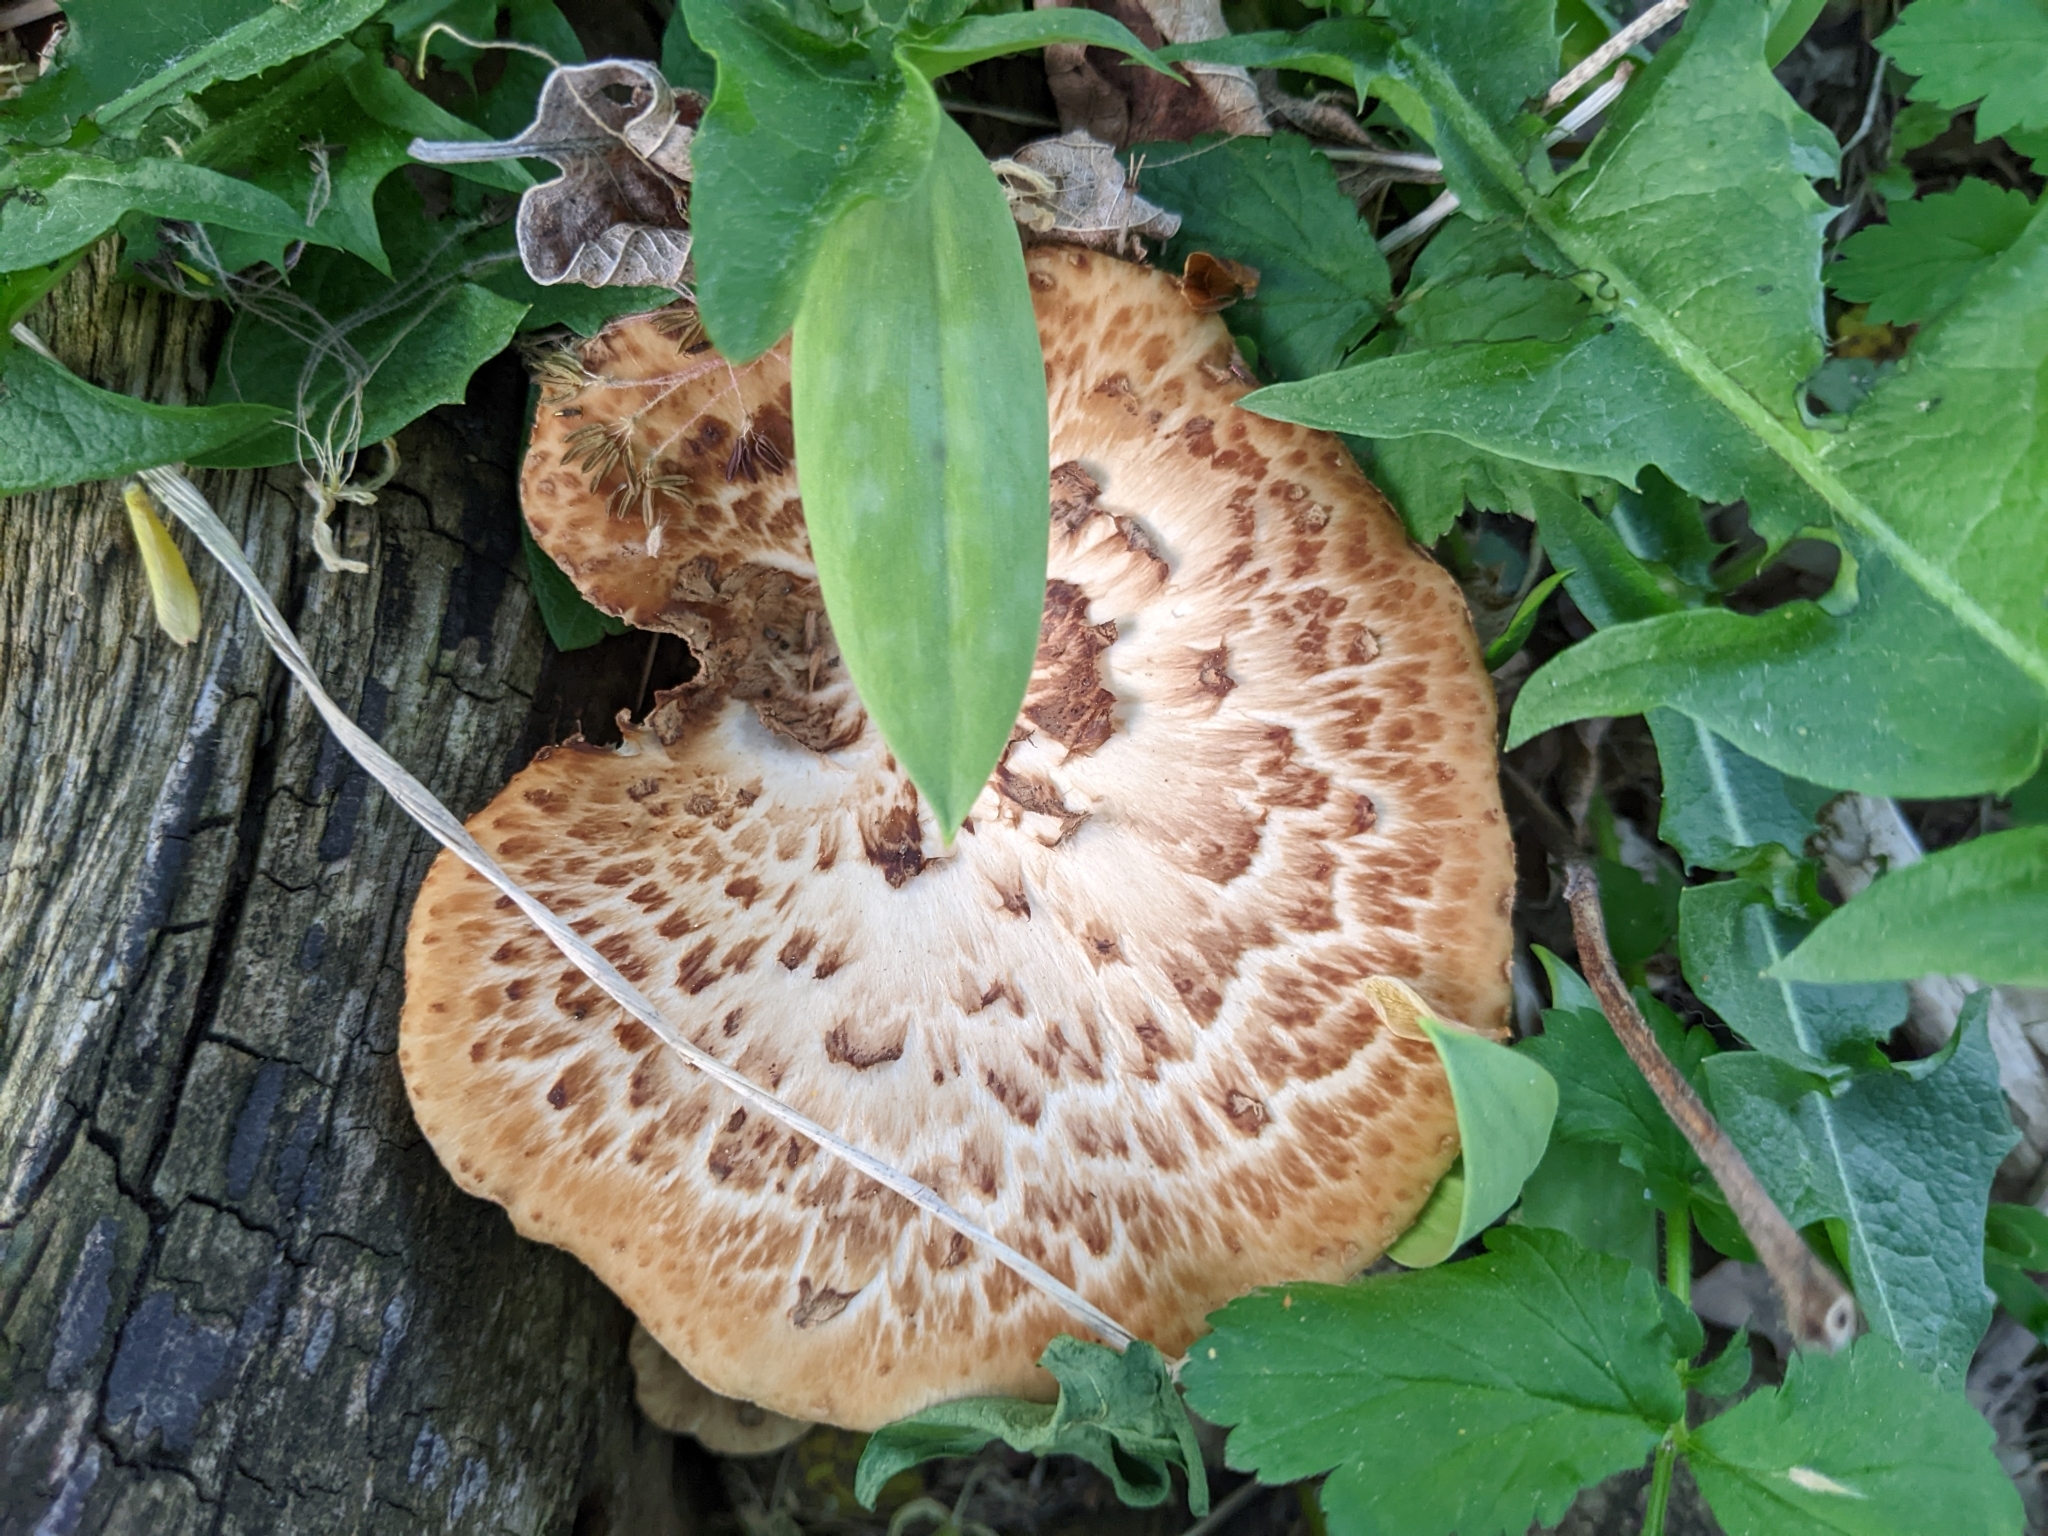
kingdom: Fungi
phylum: Basidiomycota
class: Agaricomycetes
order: Polyporales
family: Polyporaceae
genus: Cerioporus
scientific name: Cerioporus squamosus
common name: Dryad's saddle
